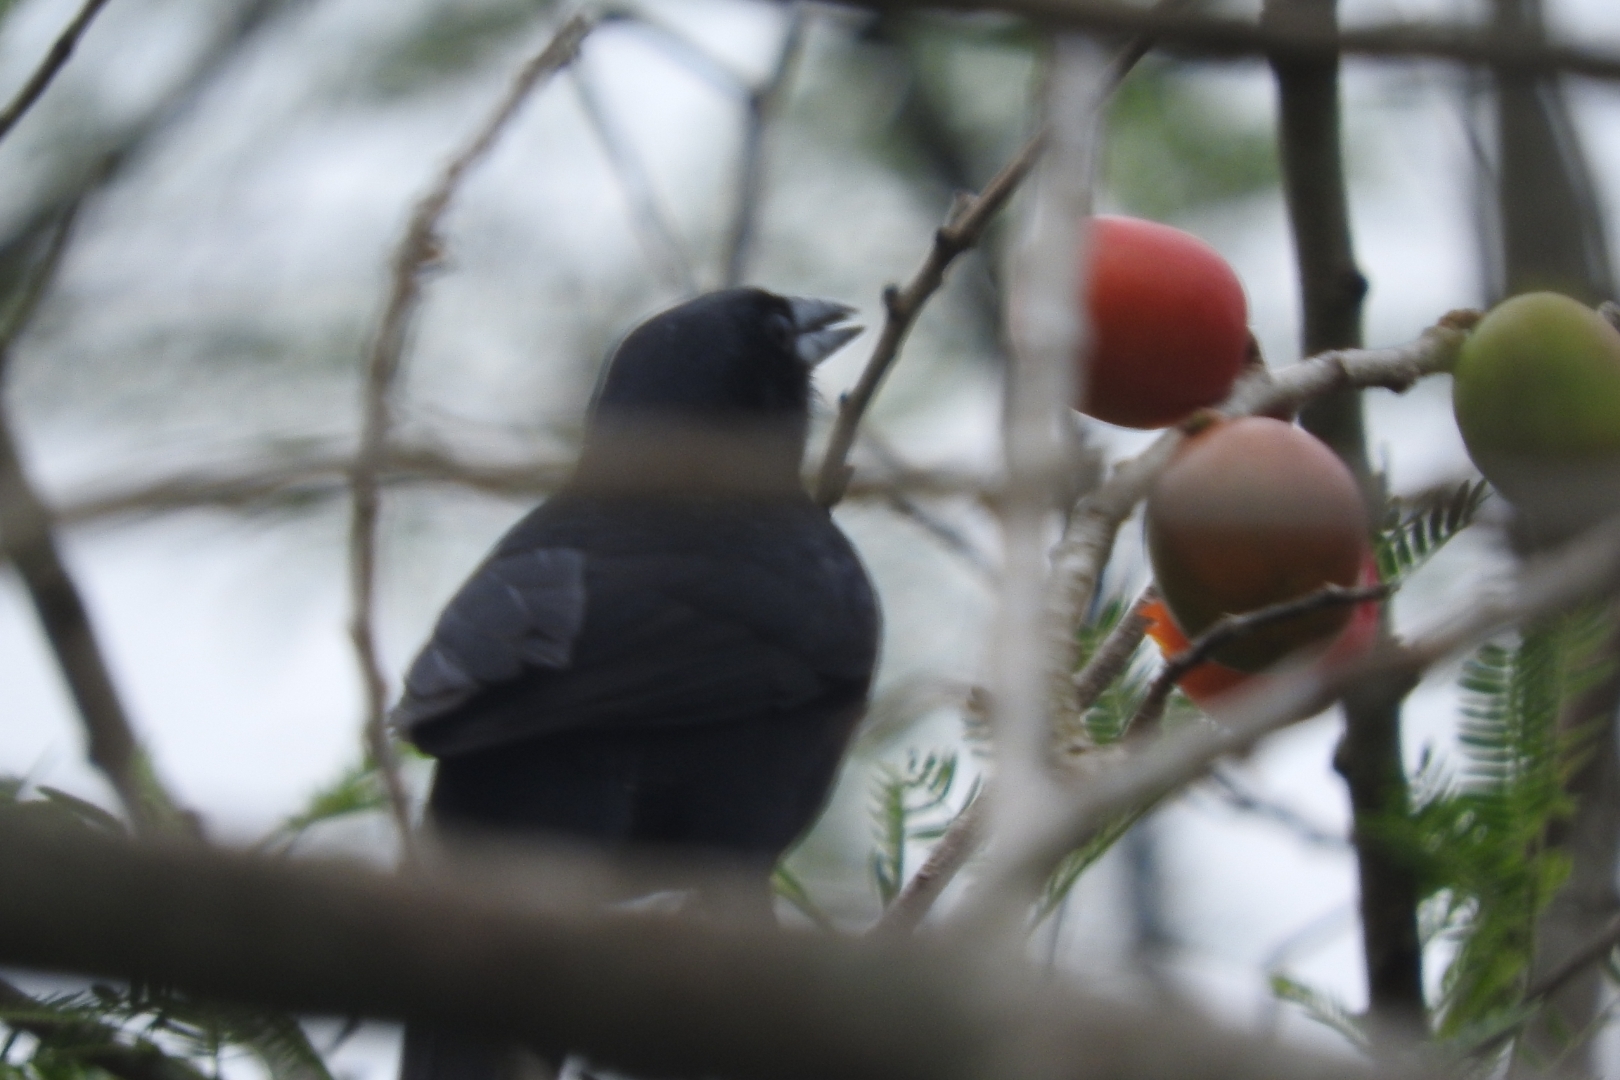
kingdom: Animalia
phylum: Chordata
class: Aves
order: Passeriformes
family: Icteridae
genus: Dives
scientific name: Dives dives
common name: Melodious blackbird
